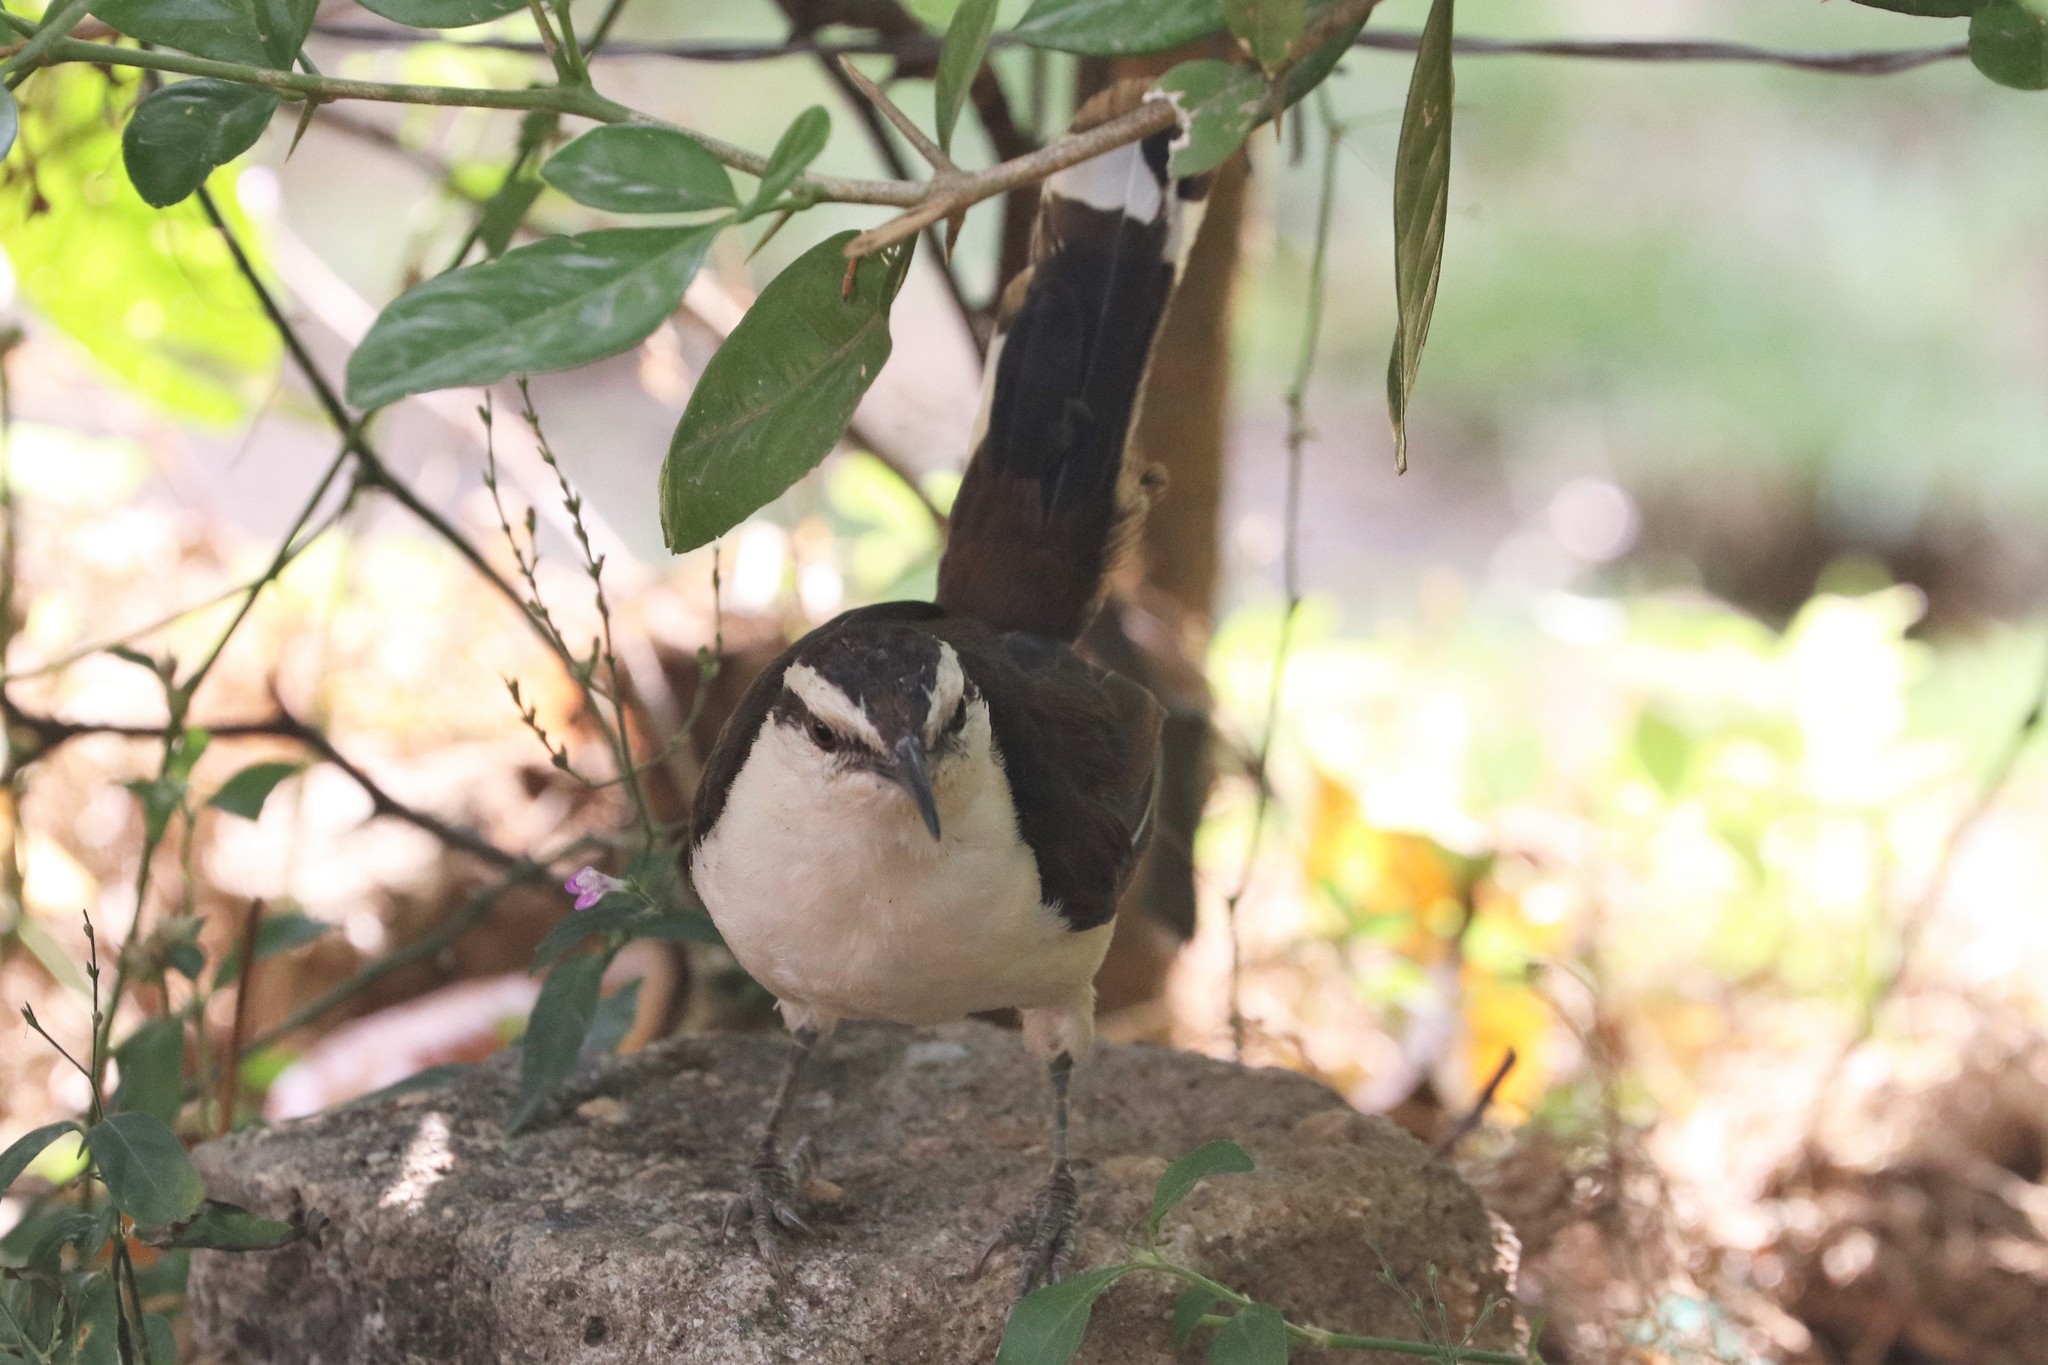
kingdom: Animalia
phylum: Chordata
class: Aves
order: Passeriformes
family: Troglodytidae
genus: Campylorhynchus
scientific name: Campylorhynchus griseus
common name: Bicolored wren
